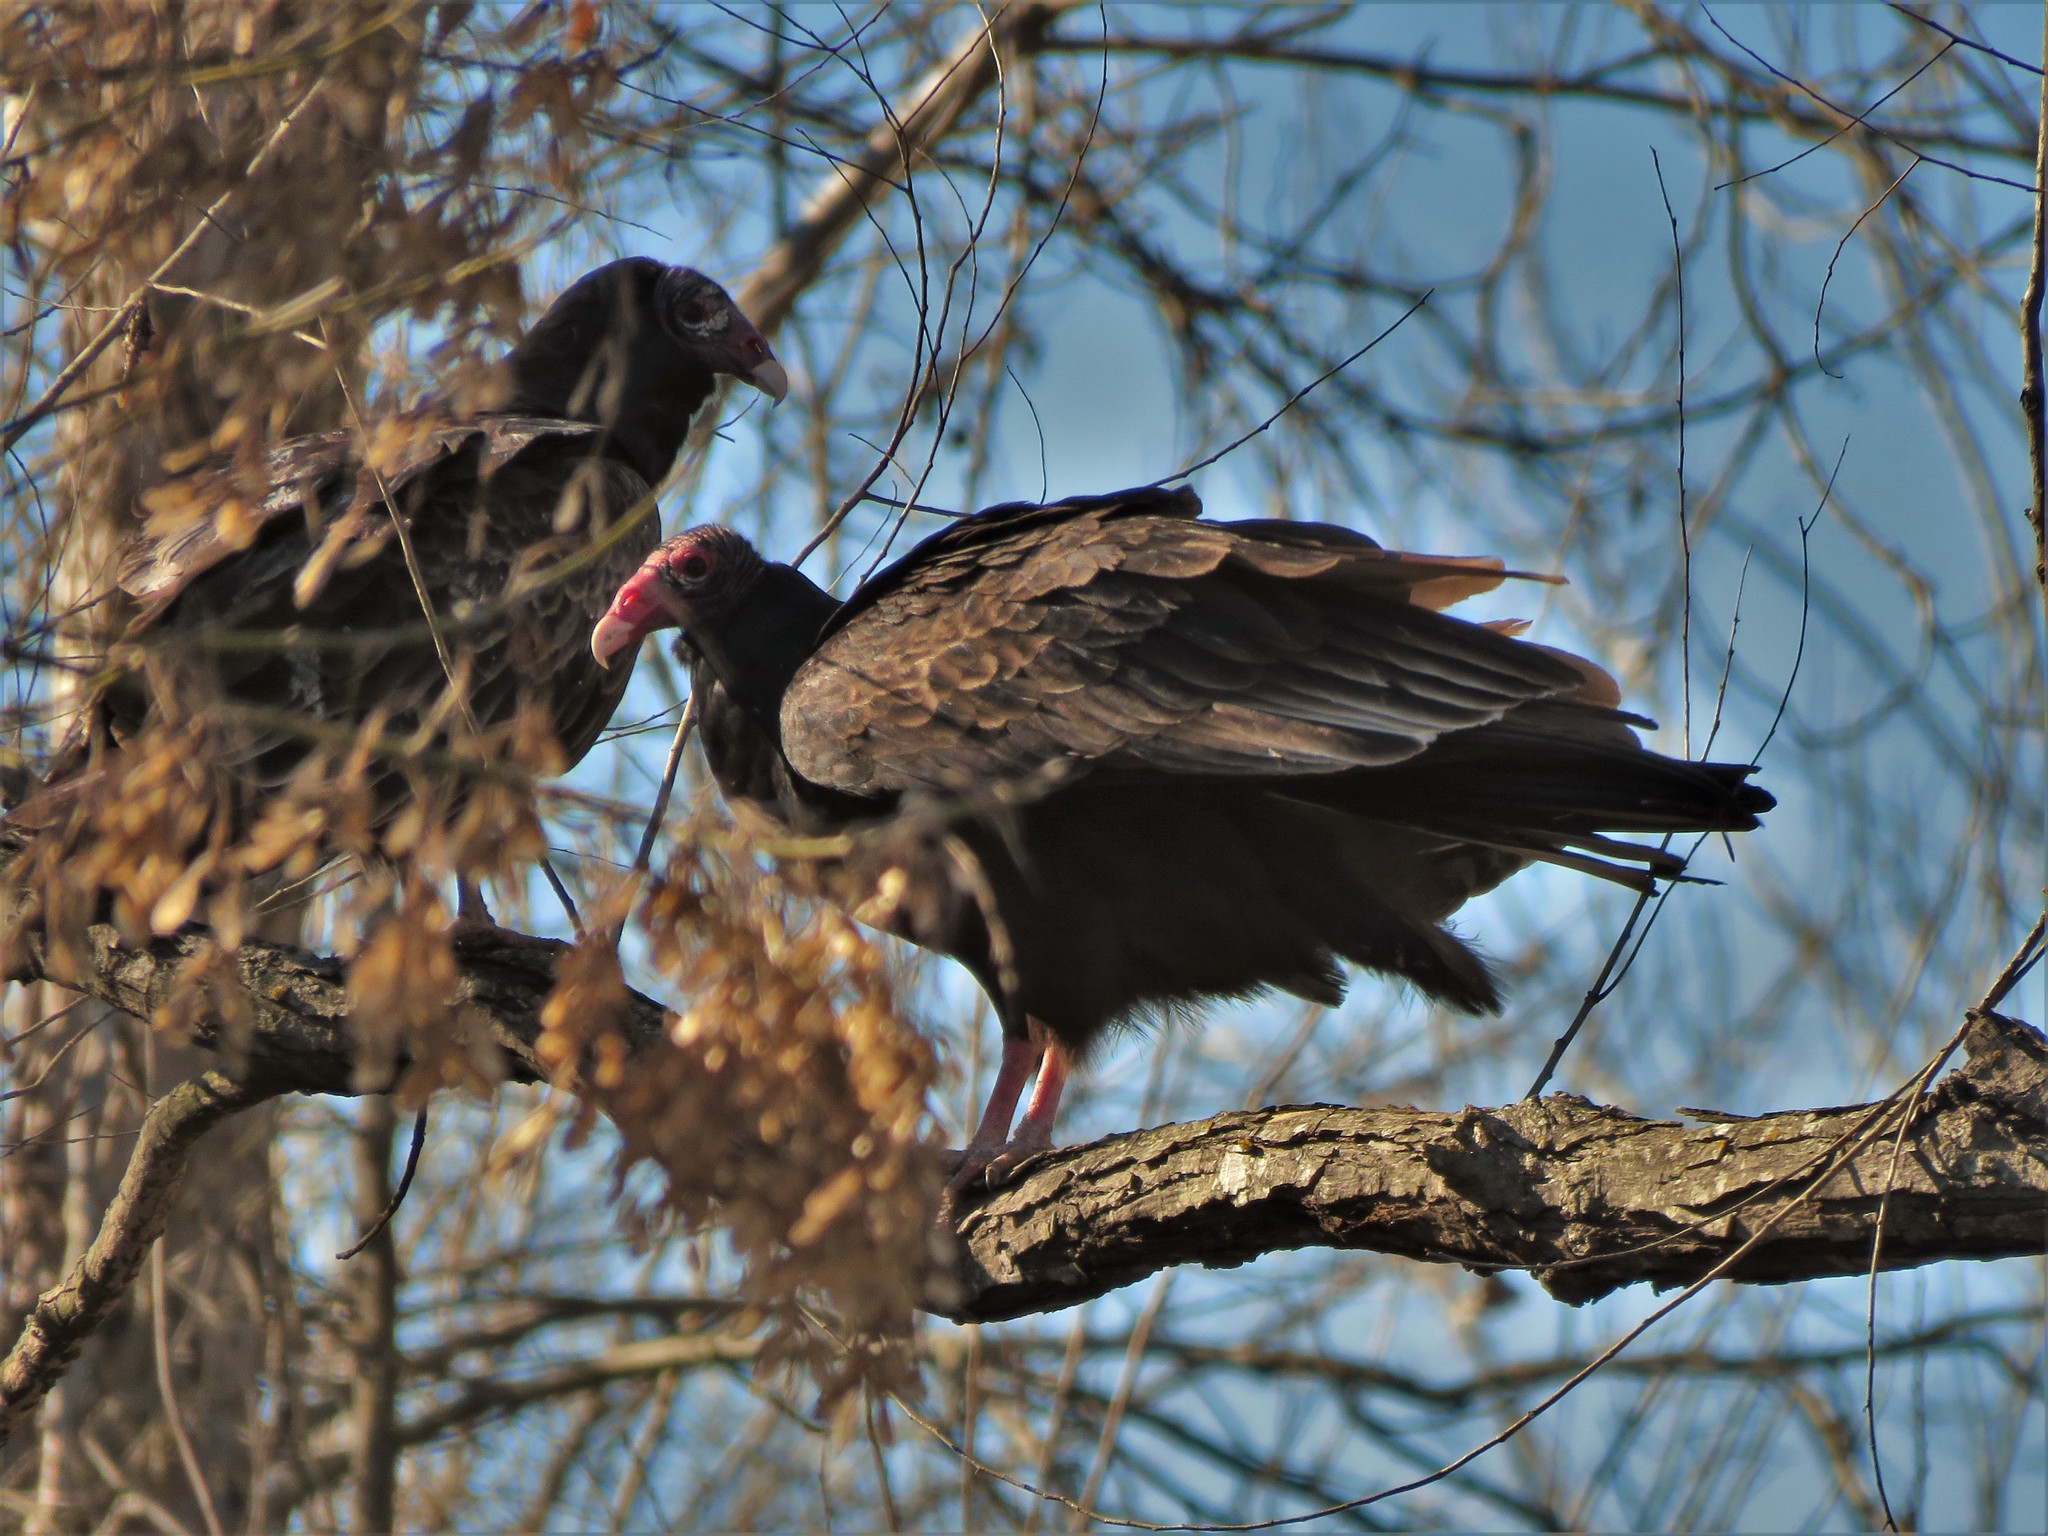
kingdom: Animalia
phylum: Chordata
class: Aves
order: Accipitriformes
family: Cathartidae
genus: Cathartes
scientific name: Cathartes aura
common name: Turkey vulture
